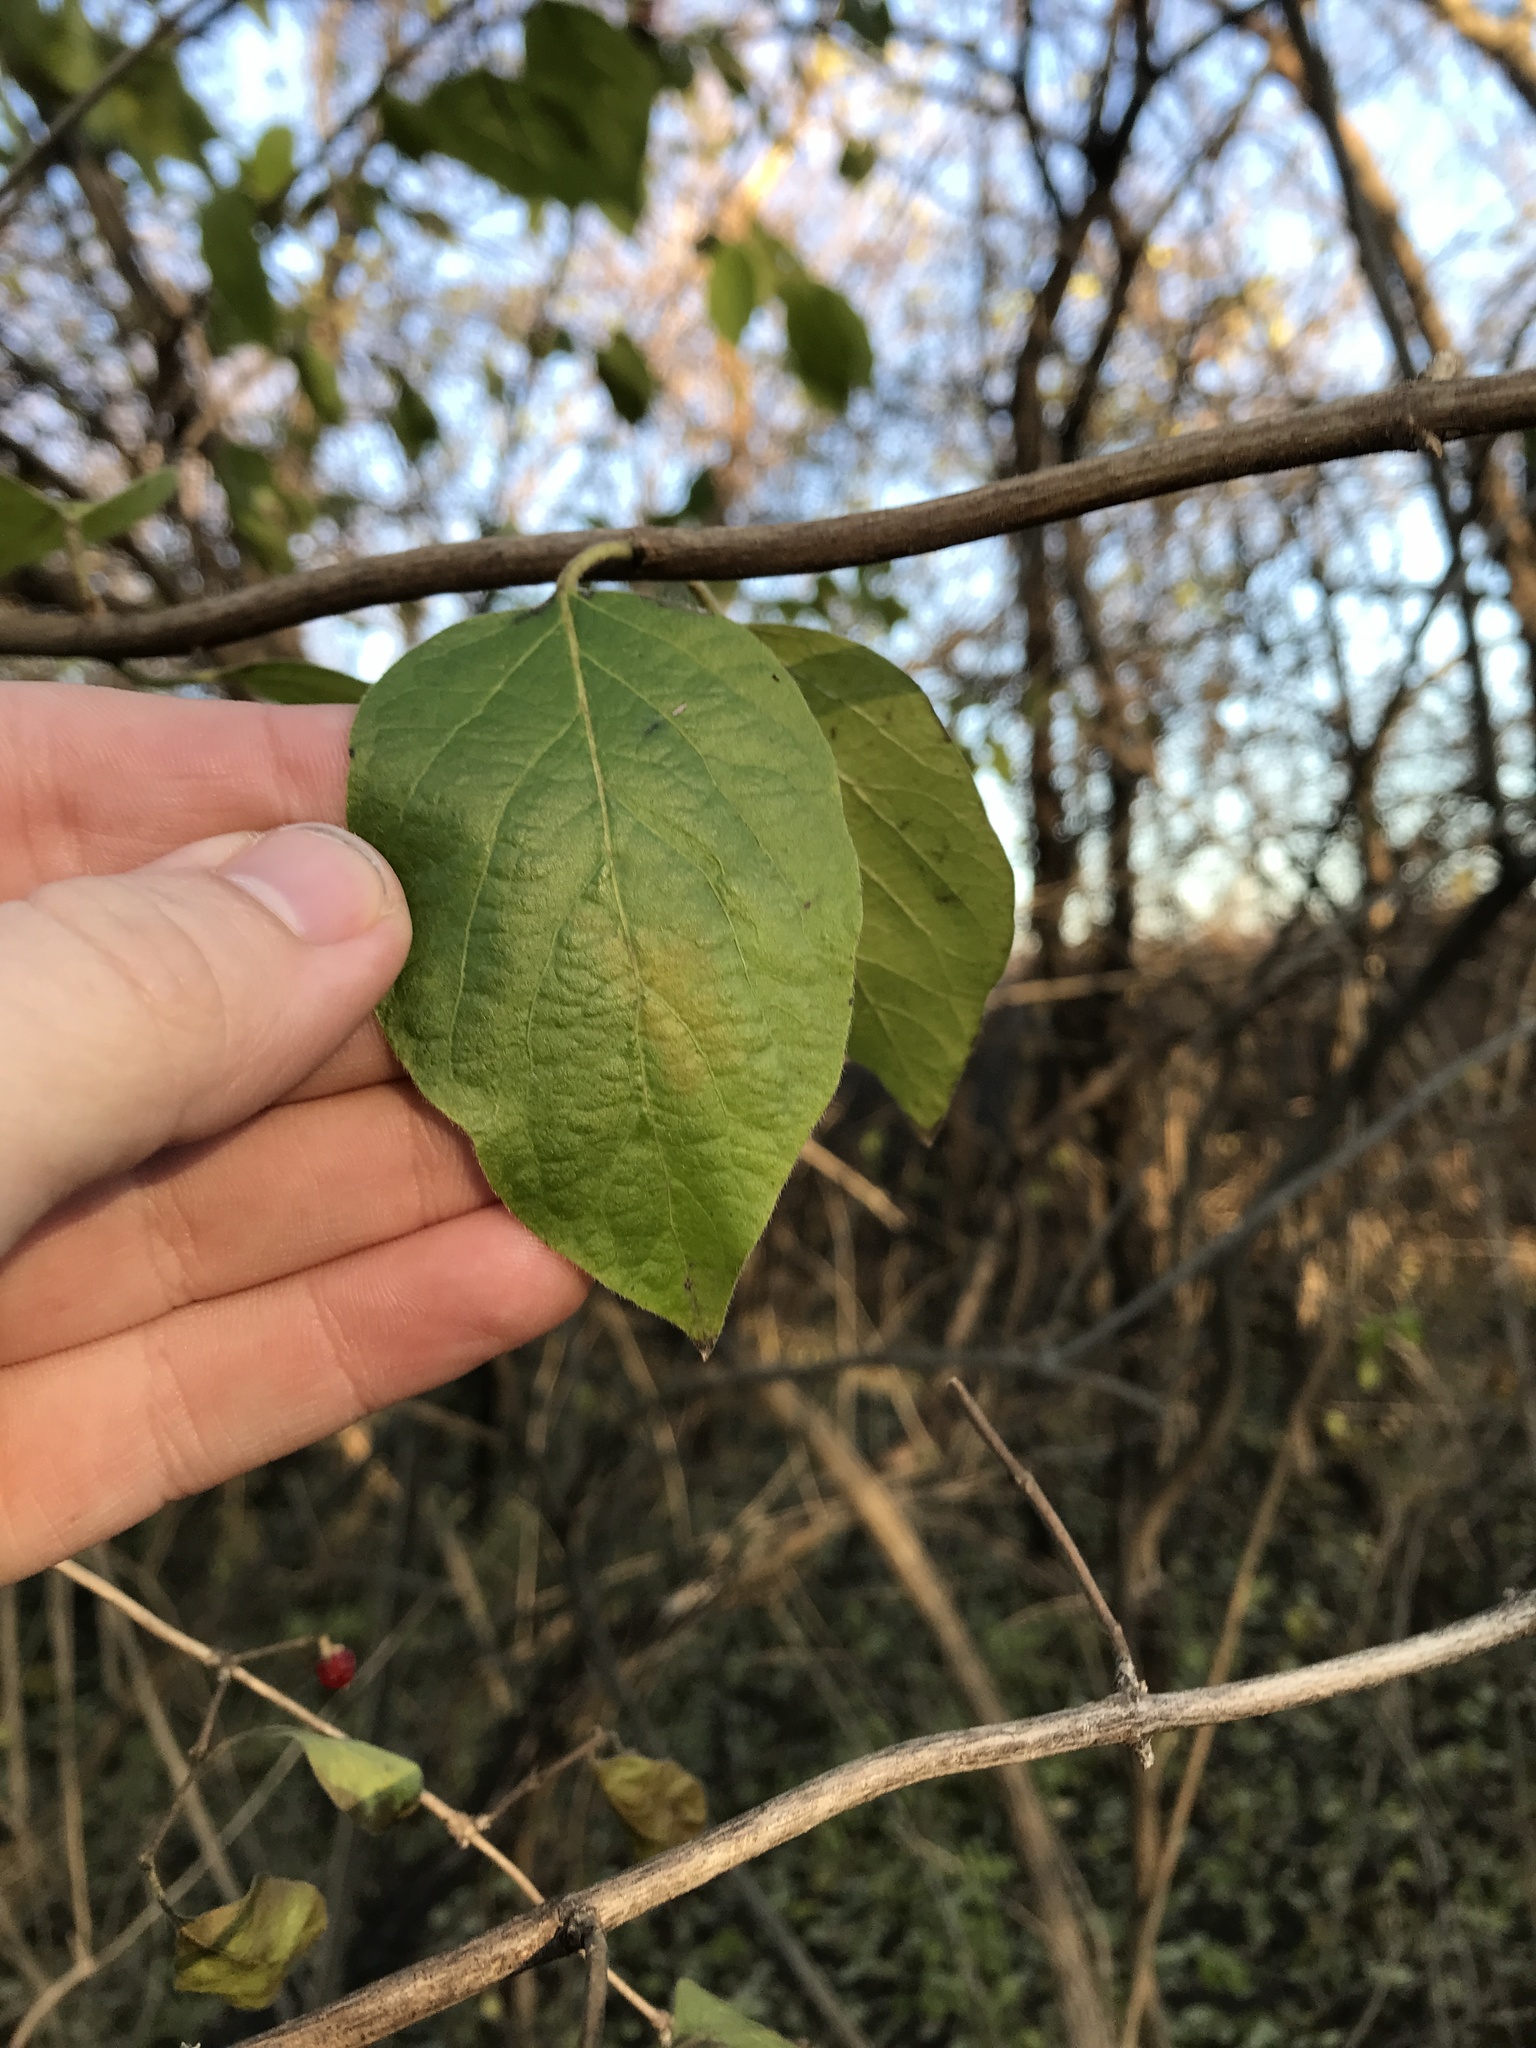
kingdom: Plantae
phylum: Tracheophyta
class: Magnoliopsida
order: Dipsacales
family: Caprifoliaceae
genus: Lonicera
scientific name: Lonicera maackii
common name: Amur honeysuckle
